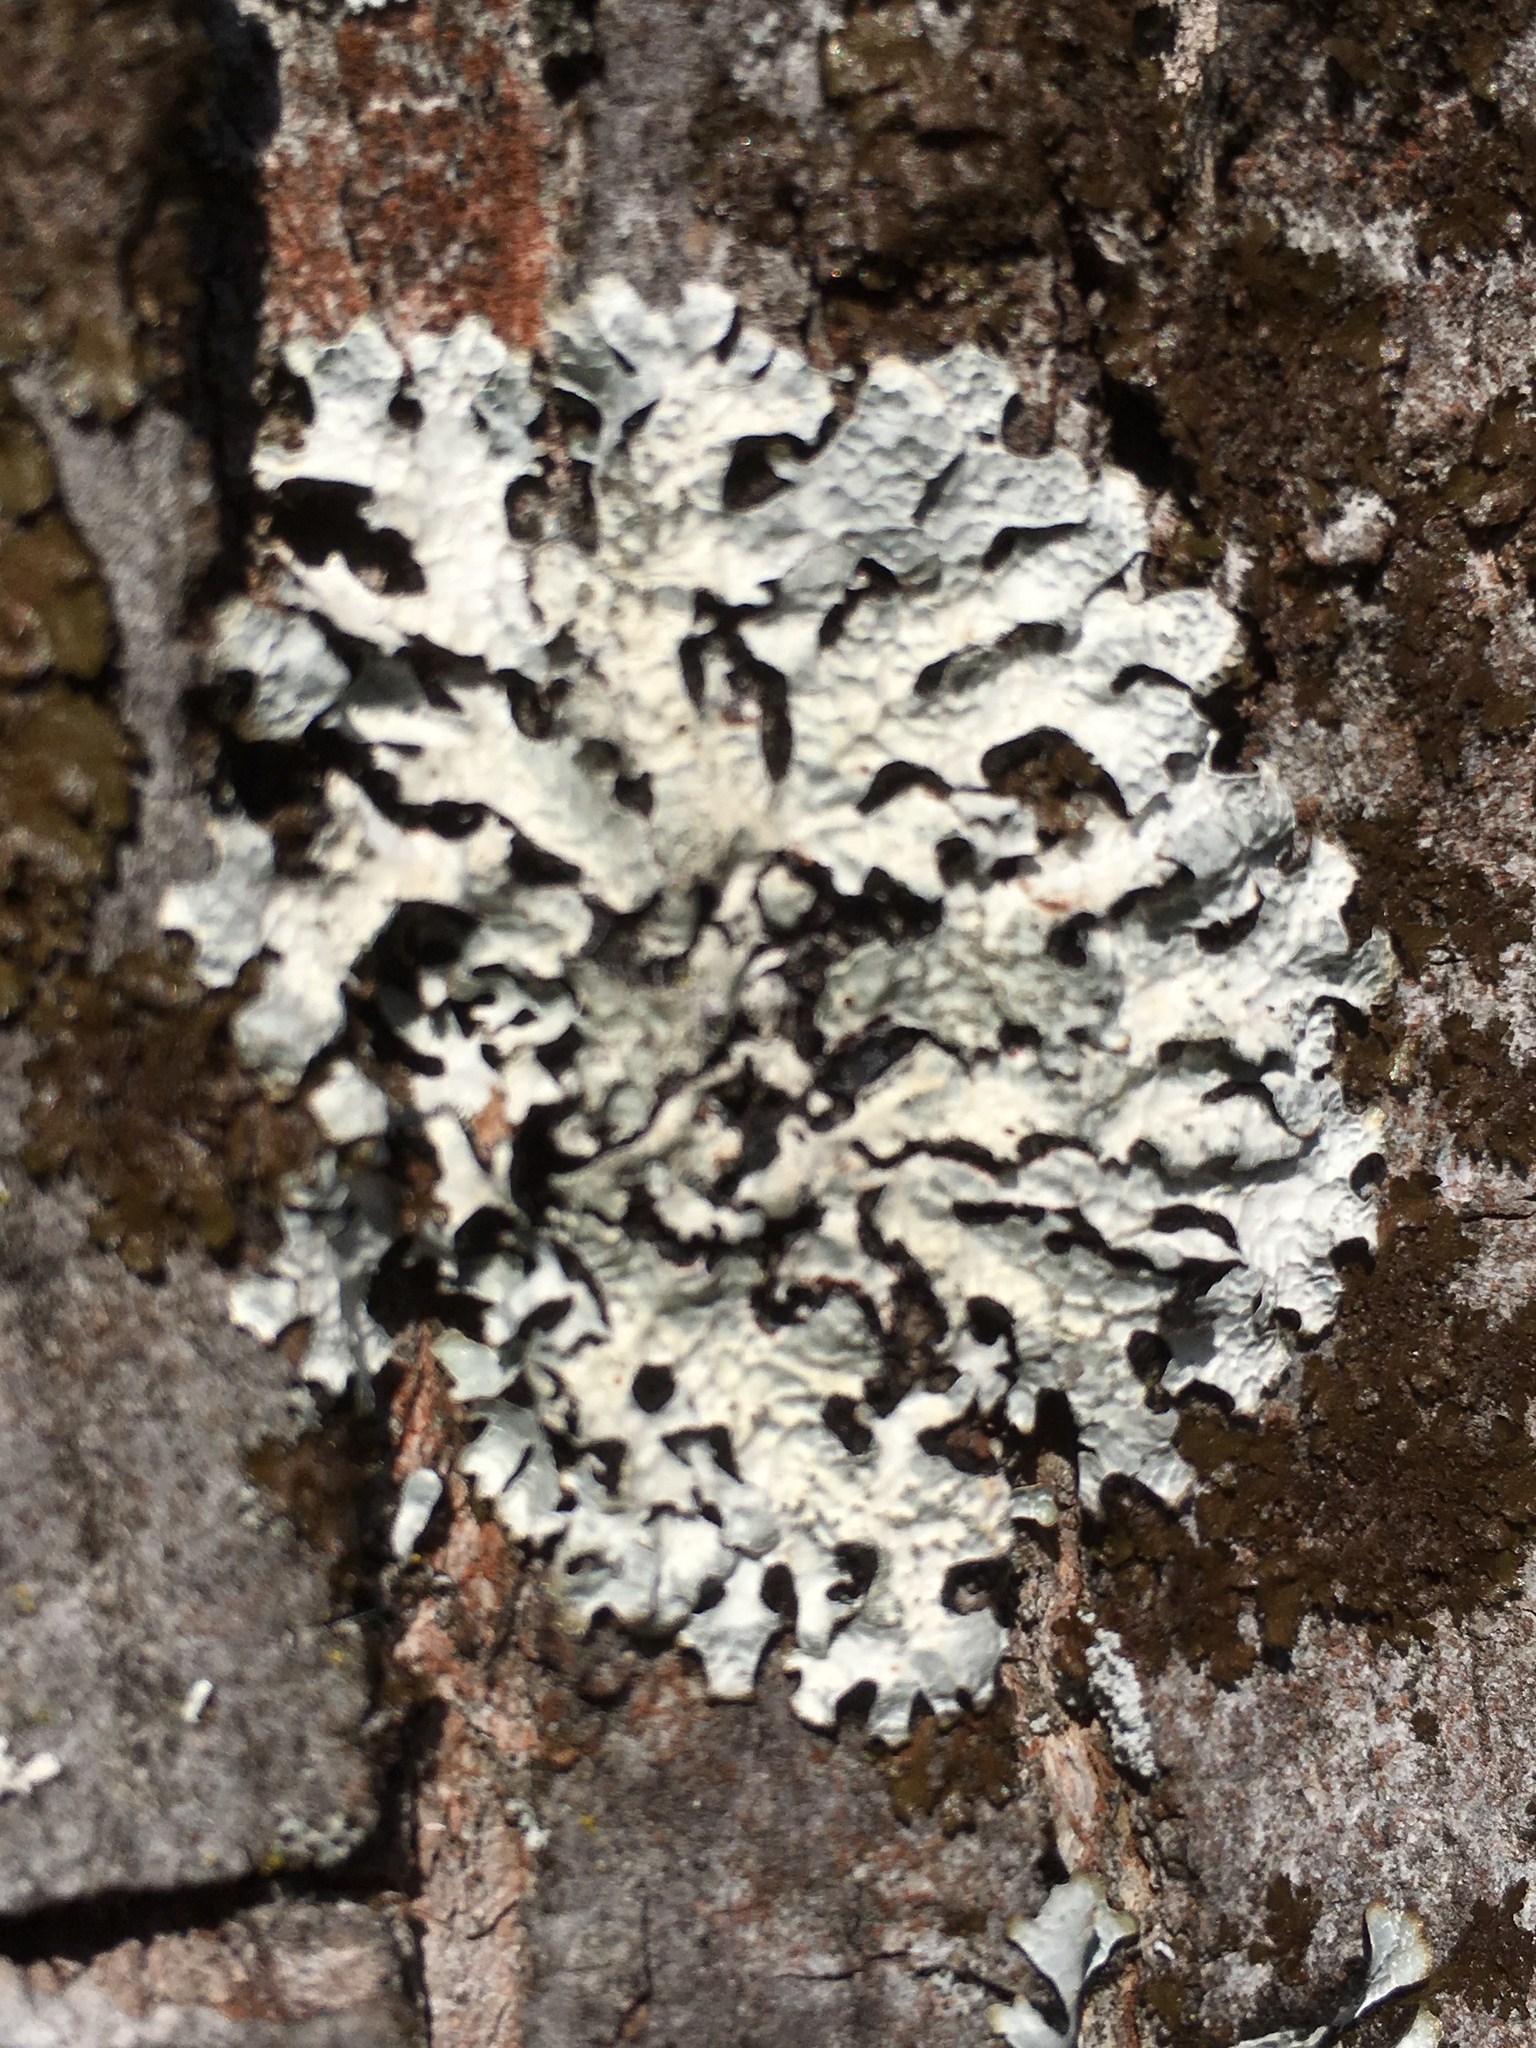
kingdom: Fungi
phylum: Ascomycota
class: Lecanoromycetes
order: Lecanorales
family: Parmeliaceae
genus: Parmelia
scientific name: Parmelia sulcata
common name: Netted shield lichen
